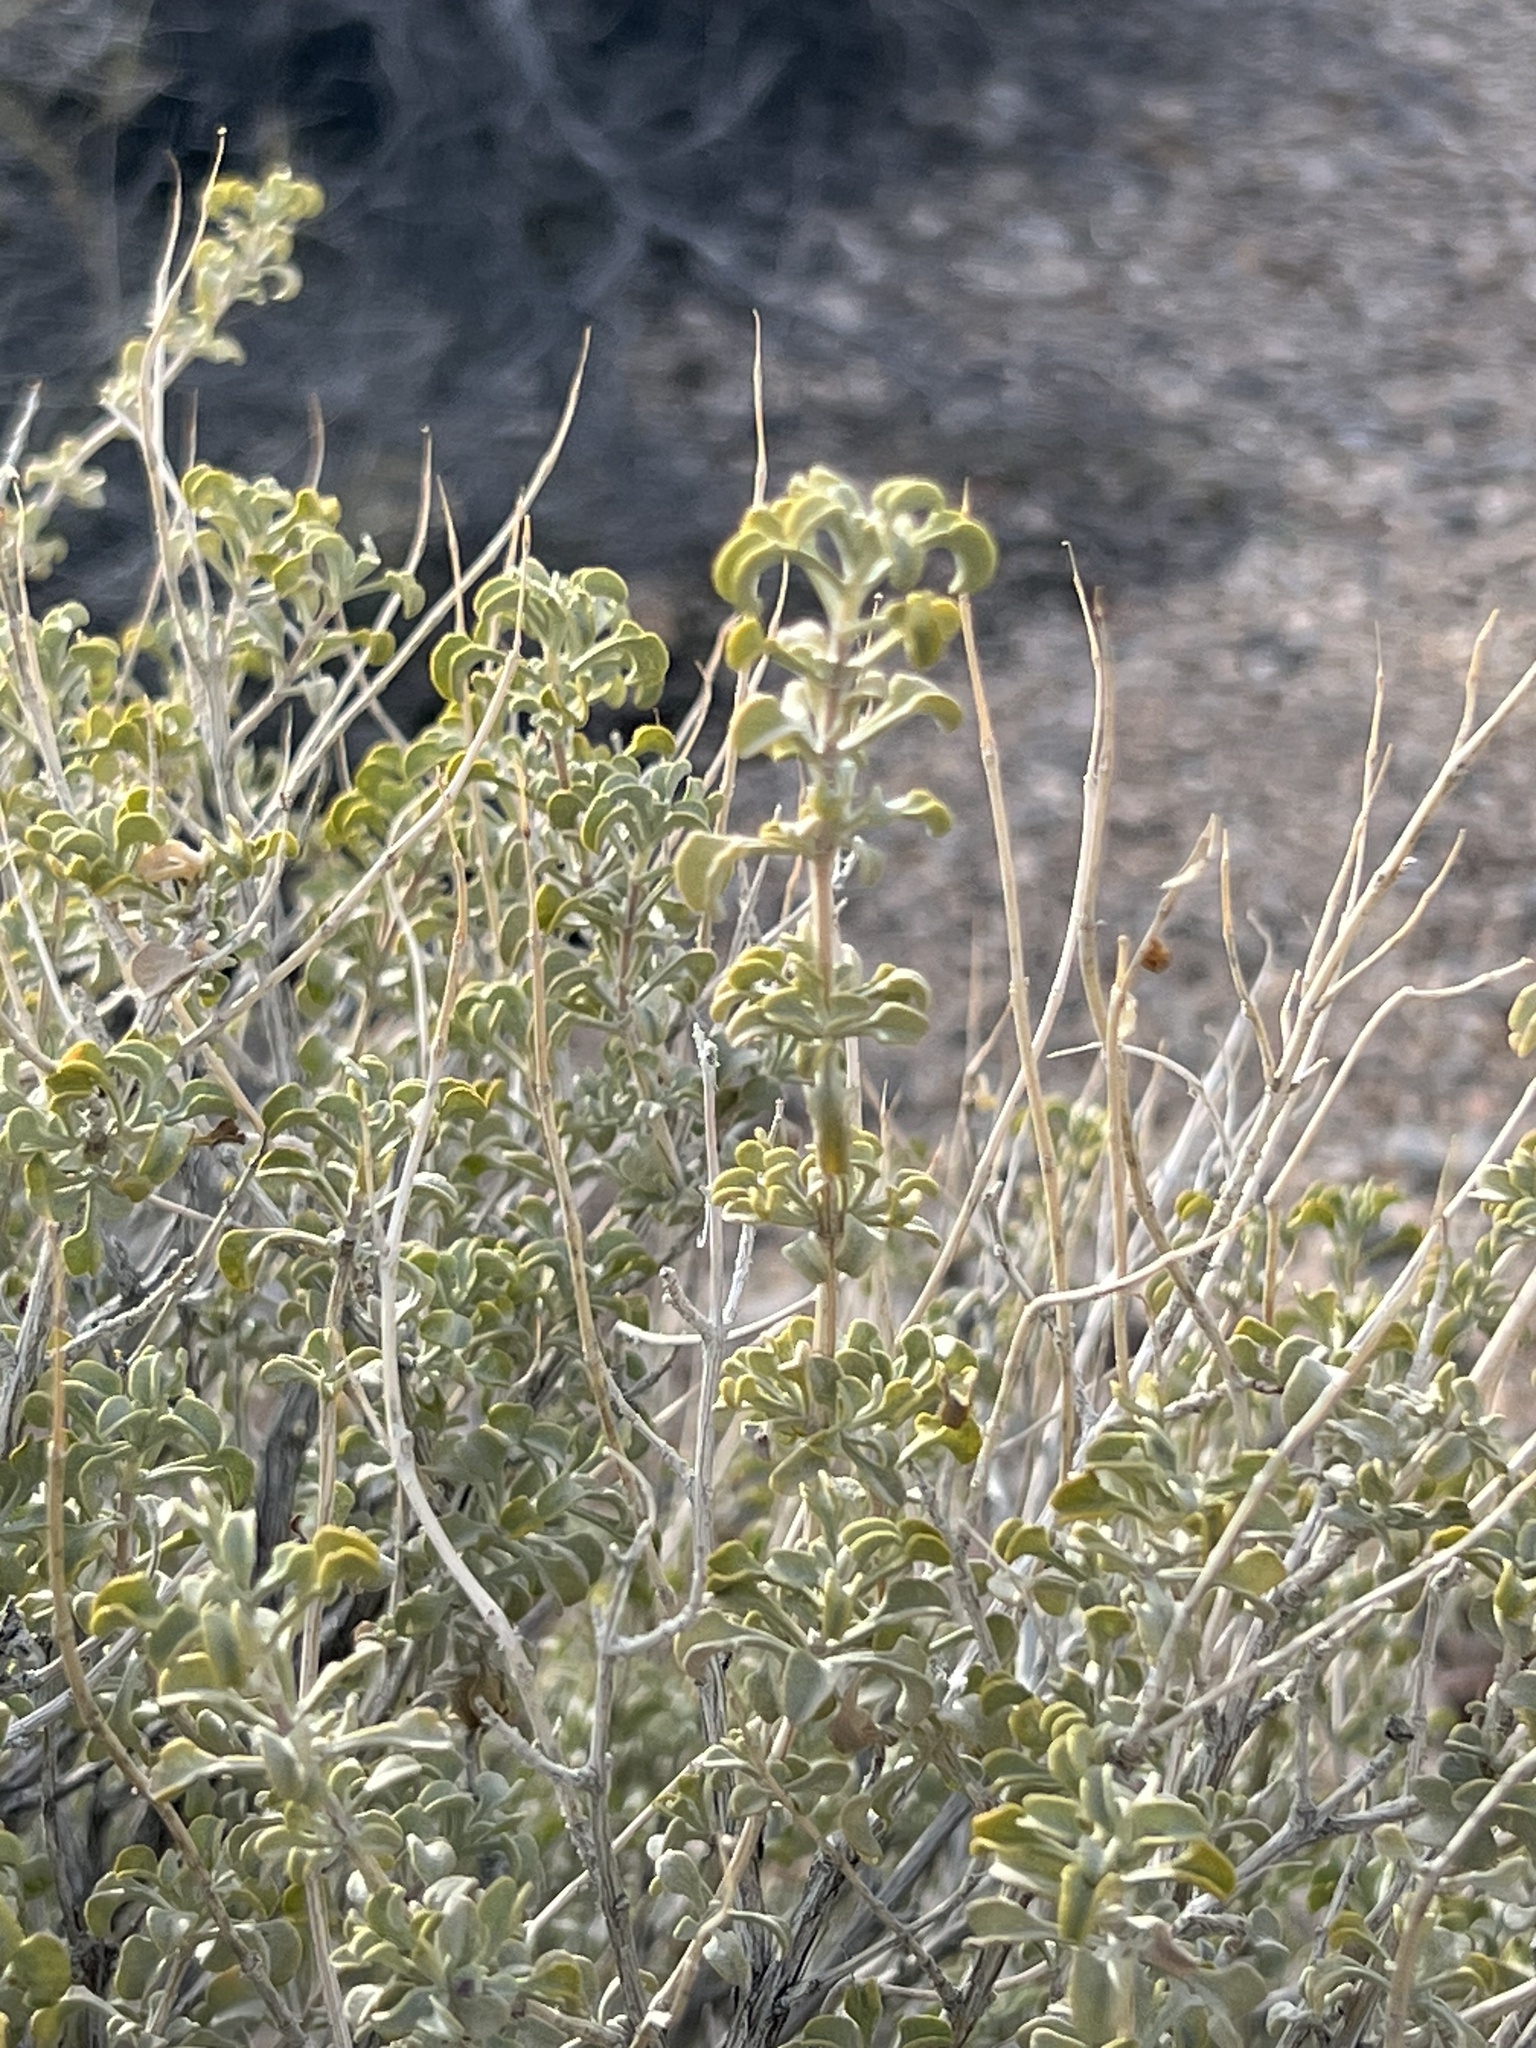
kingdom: Plantae
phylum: Tracheophyta
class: Magnoliopsida
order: Lamiales
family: Lamiaceae
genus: Salvia
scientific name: Salvia dorrii
